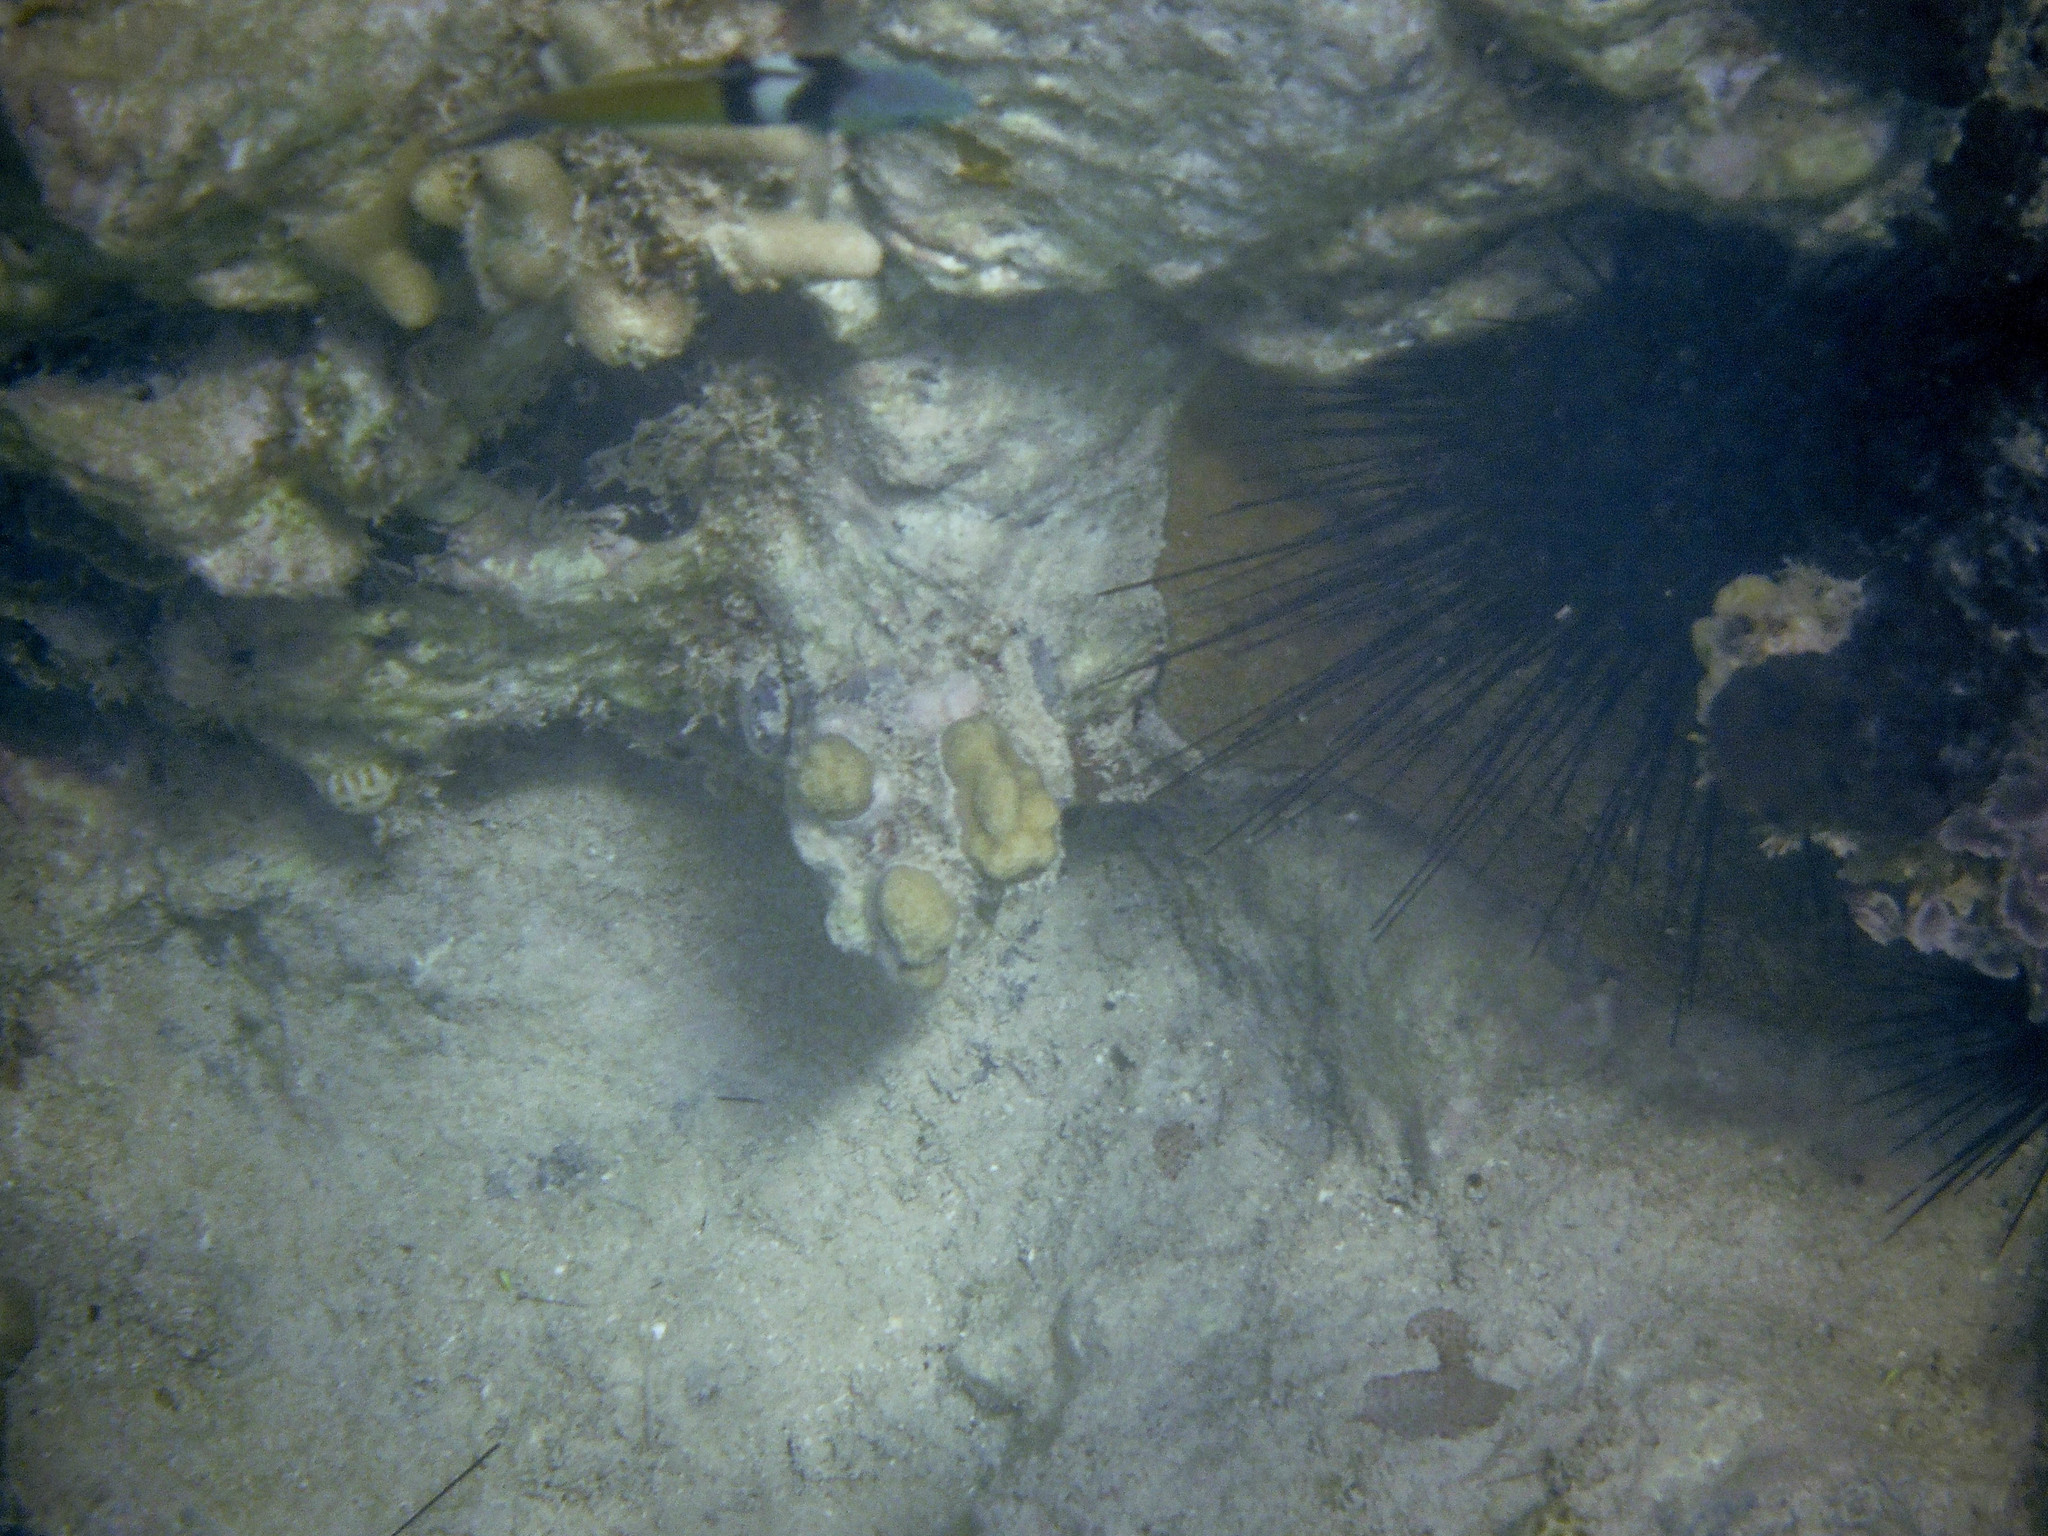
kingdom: Animalia
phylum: Cnidaria
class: Anthozoa
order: Scleractinia
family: Poritidae
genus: Porites
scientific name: Porites porites
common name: Finger coral
